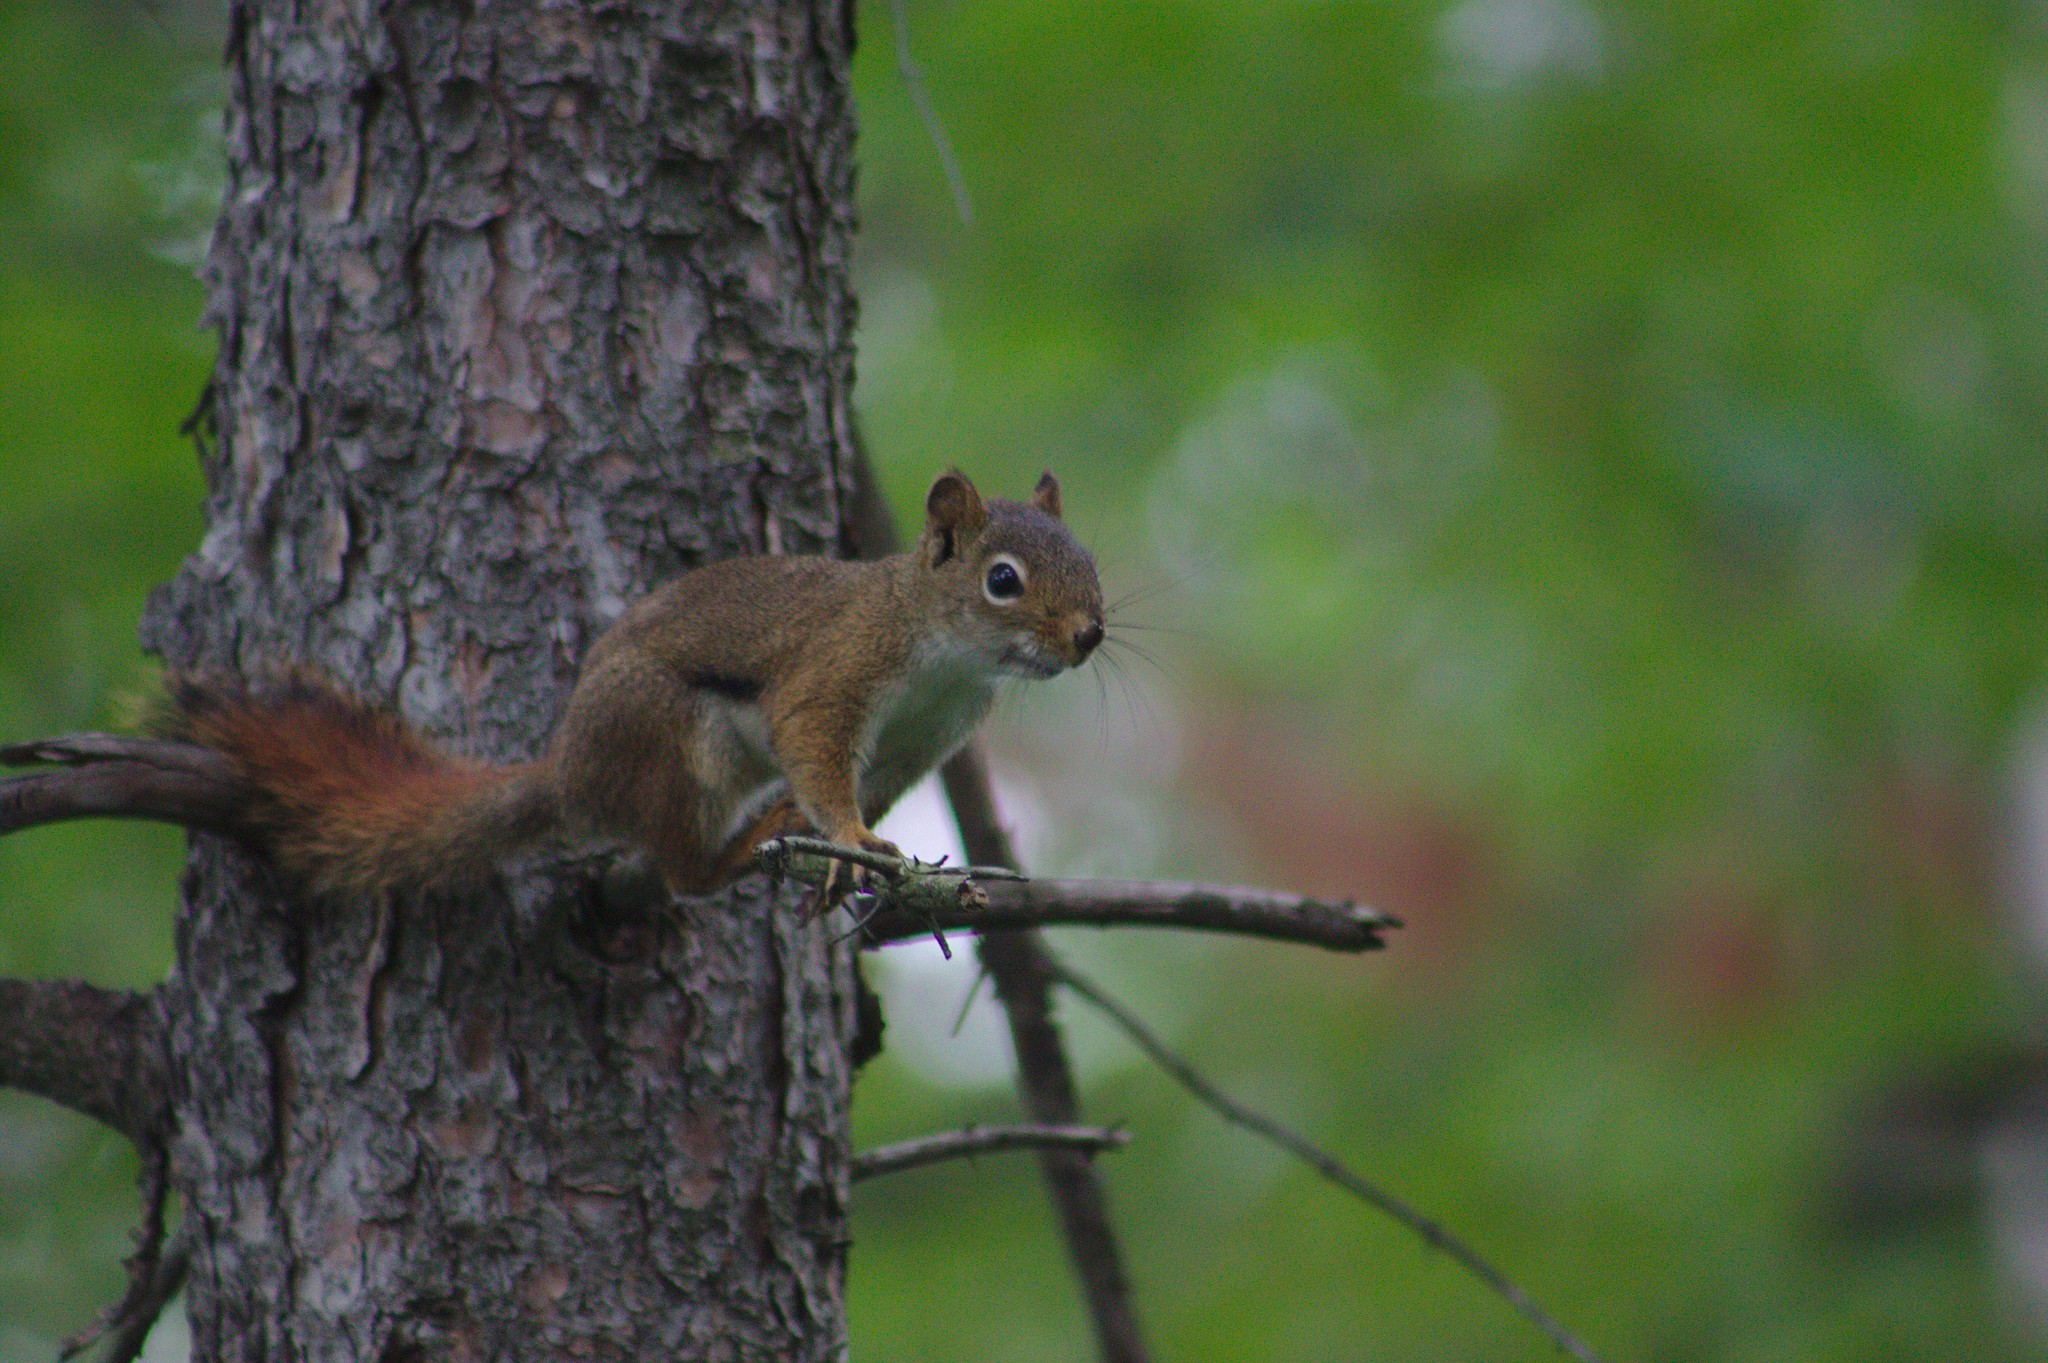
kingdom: Animalia
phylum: Chordata
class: Mammalia
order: Rodentia
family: Sciuridae
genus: Tamiasciurus
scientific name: Tamiasciurus hudsonicus
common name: Red squirrel
